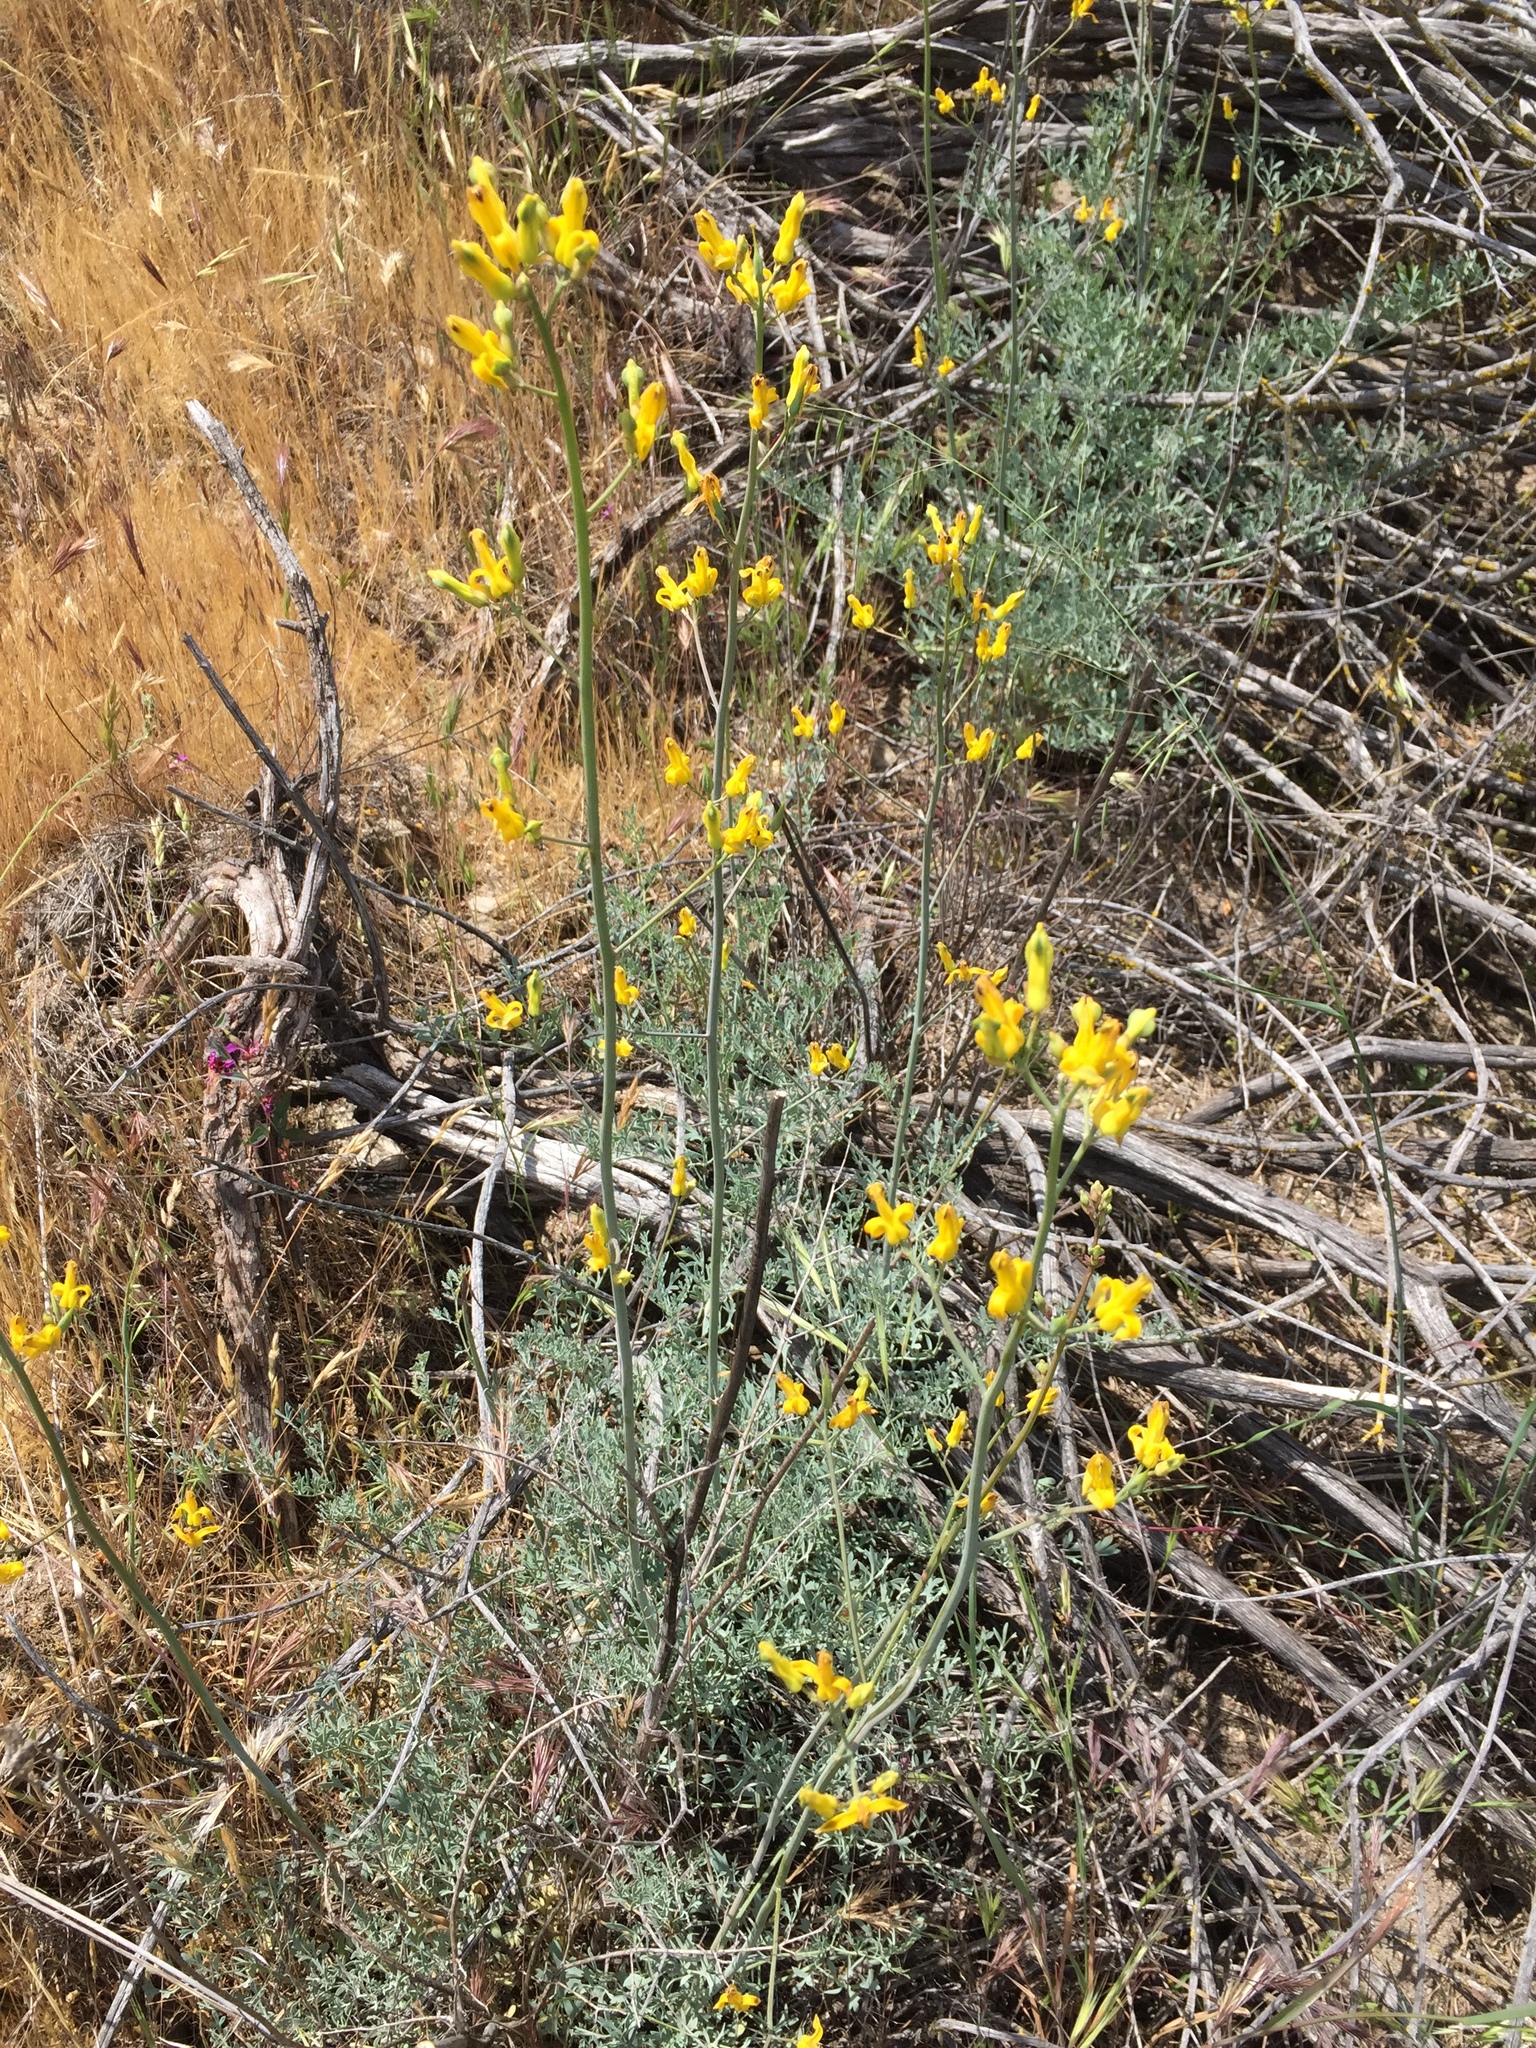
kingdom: Plantae
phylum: Tracheophyta
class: Magnoliopsida
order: Ranunculales
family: Papaveraceae
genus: Ehrendorferia
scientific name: Ehrendorferia chrysantha
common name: Golden eardrops
